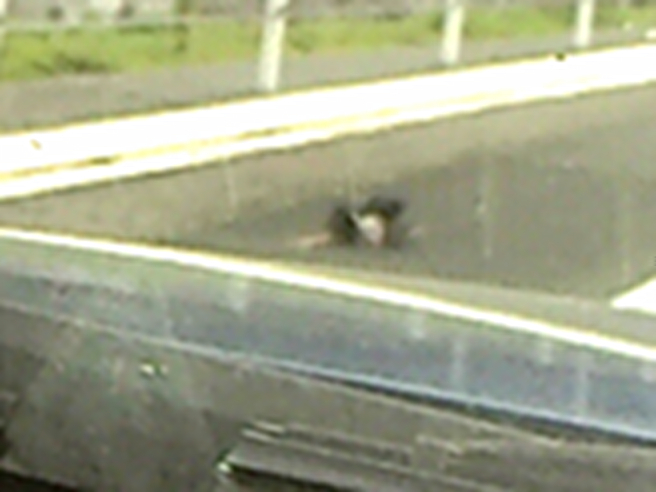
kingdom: Animalia
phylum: Chordata
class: Aves
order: Gruiformes
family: Rallidae
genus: Porphyrio
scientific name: Porphyrio melanotus
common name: Australasian swamphen
